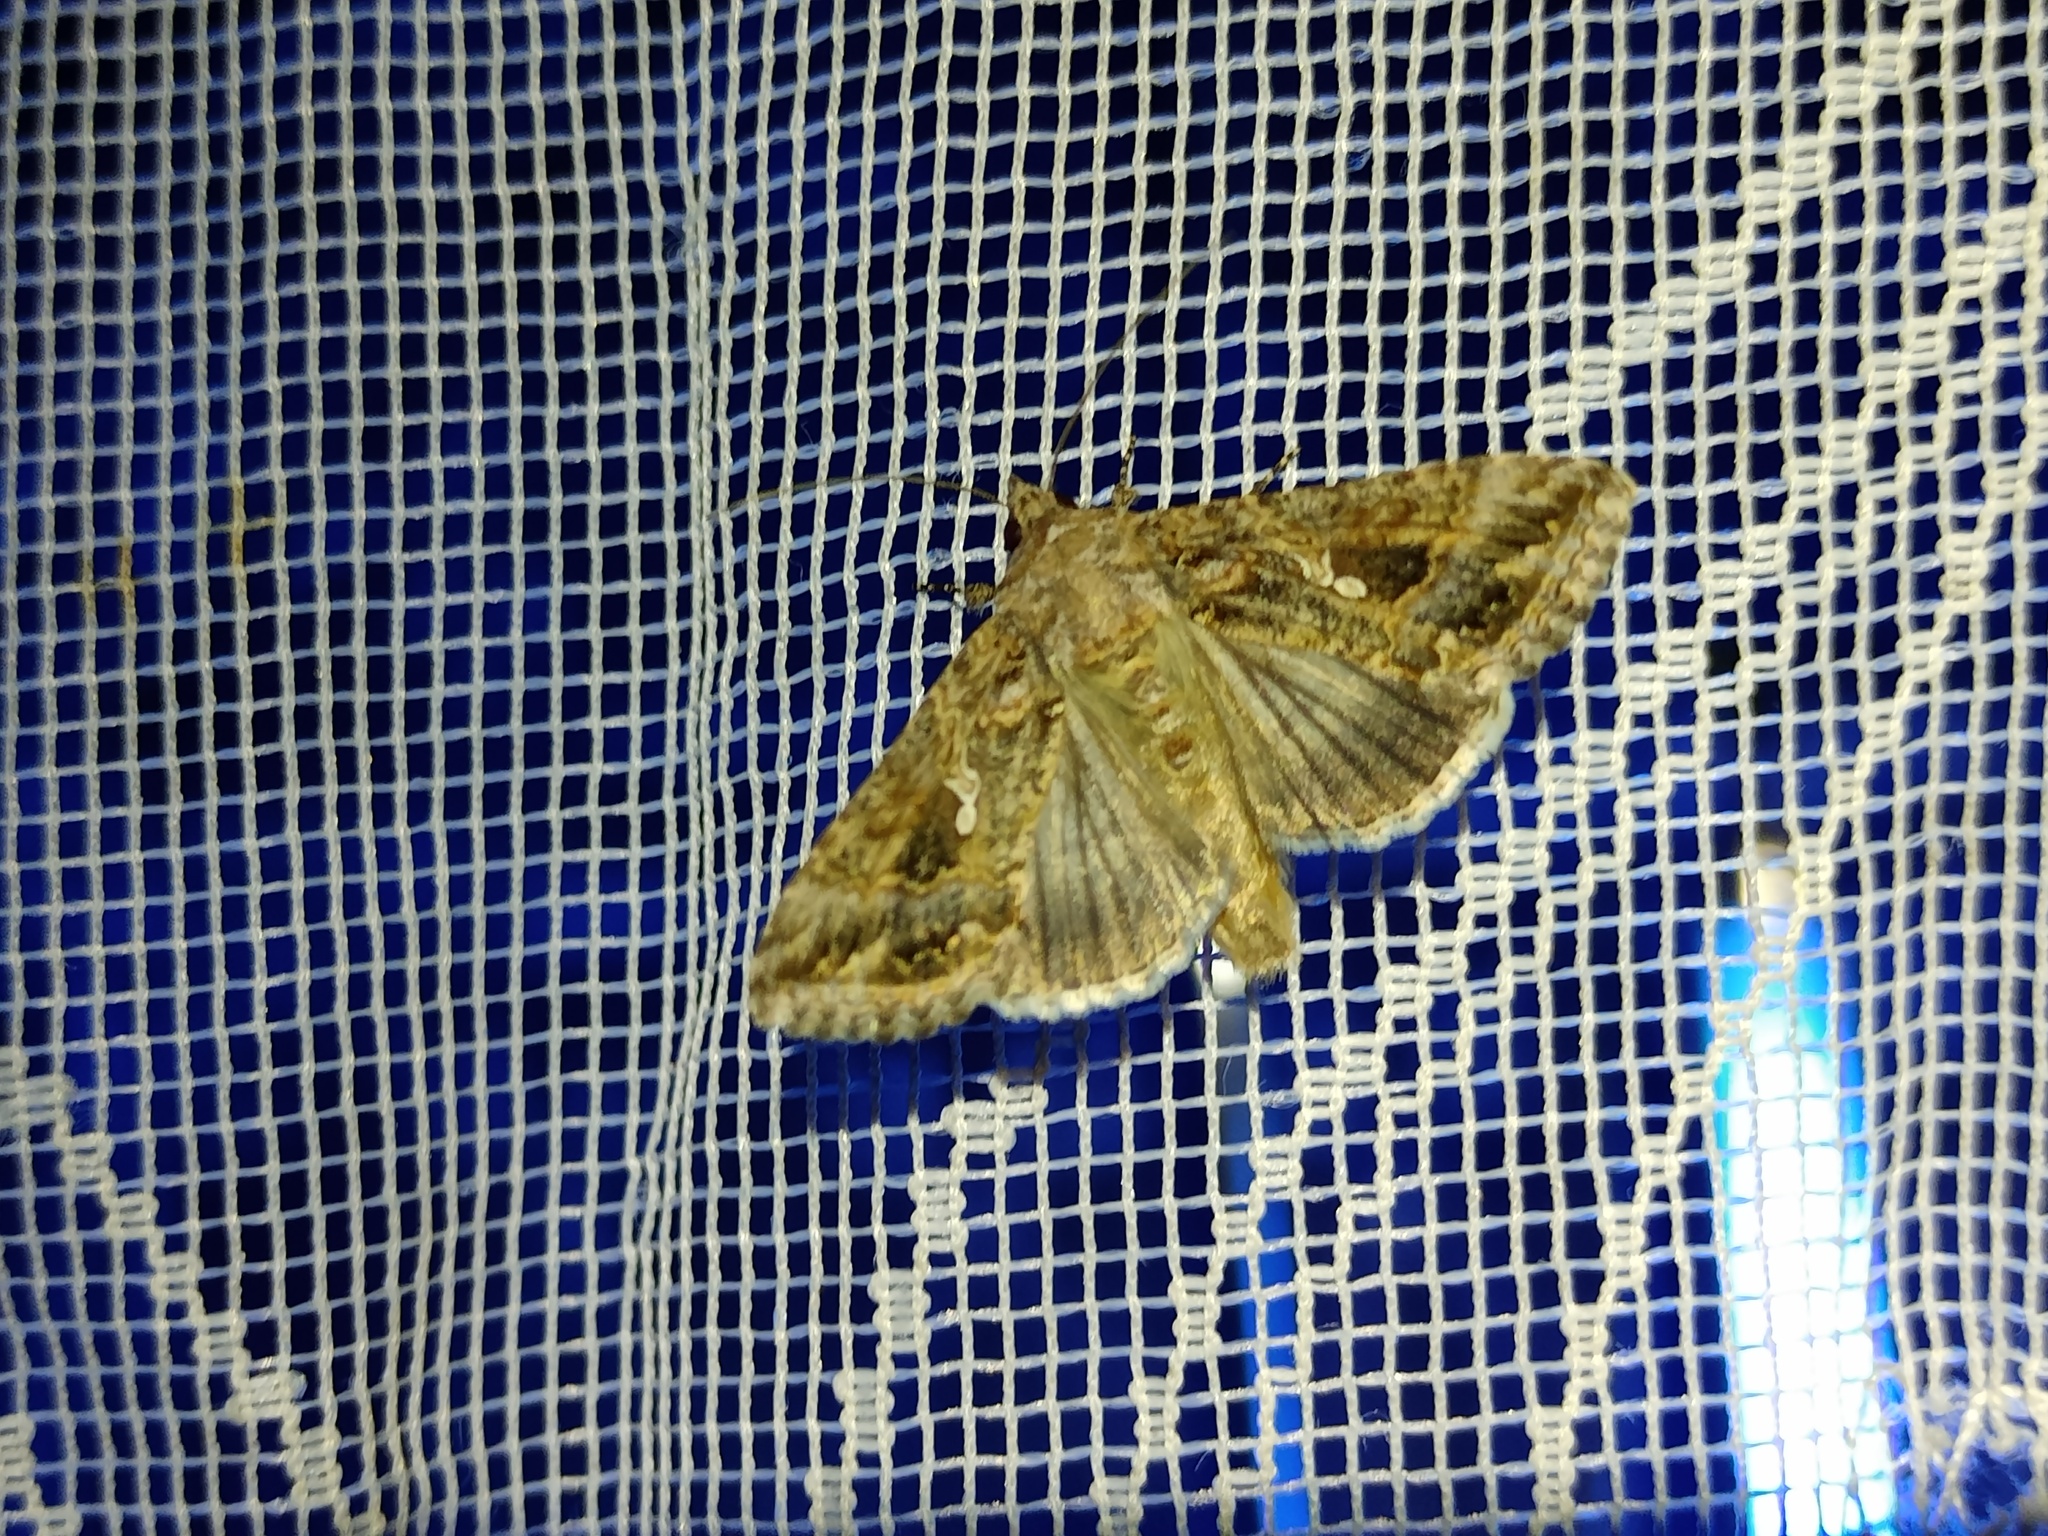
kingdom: Animalia
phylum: Arthropoda
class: Insecta
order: Lepidoptera
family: Noctuidae
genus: Trichoplusia
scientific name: Trichoplusia ni
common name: Ni moth
